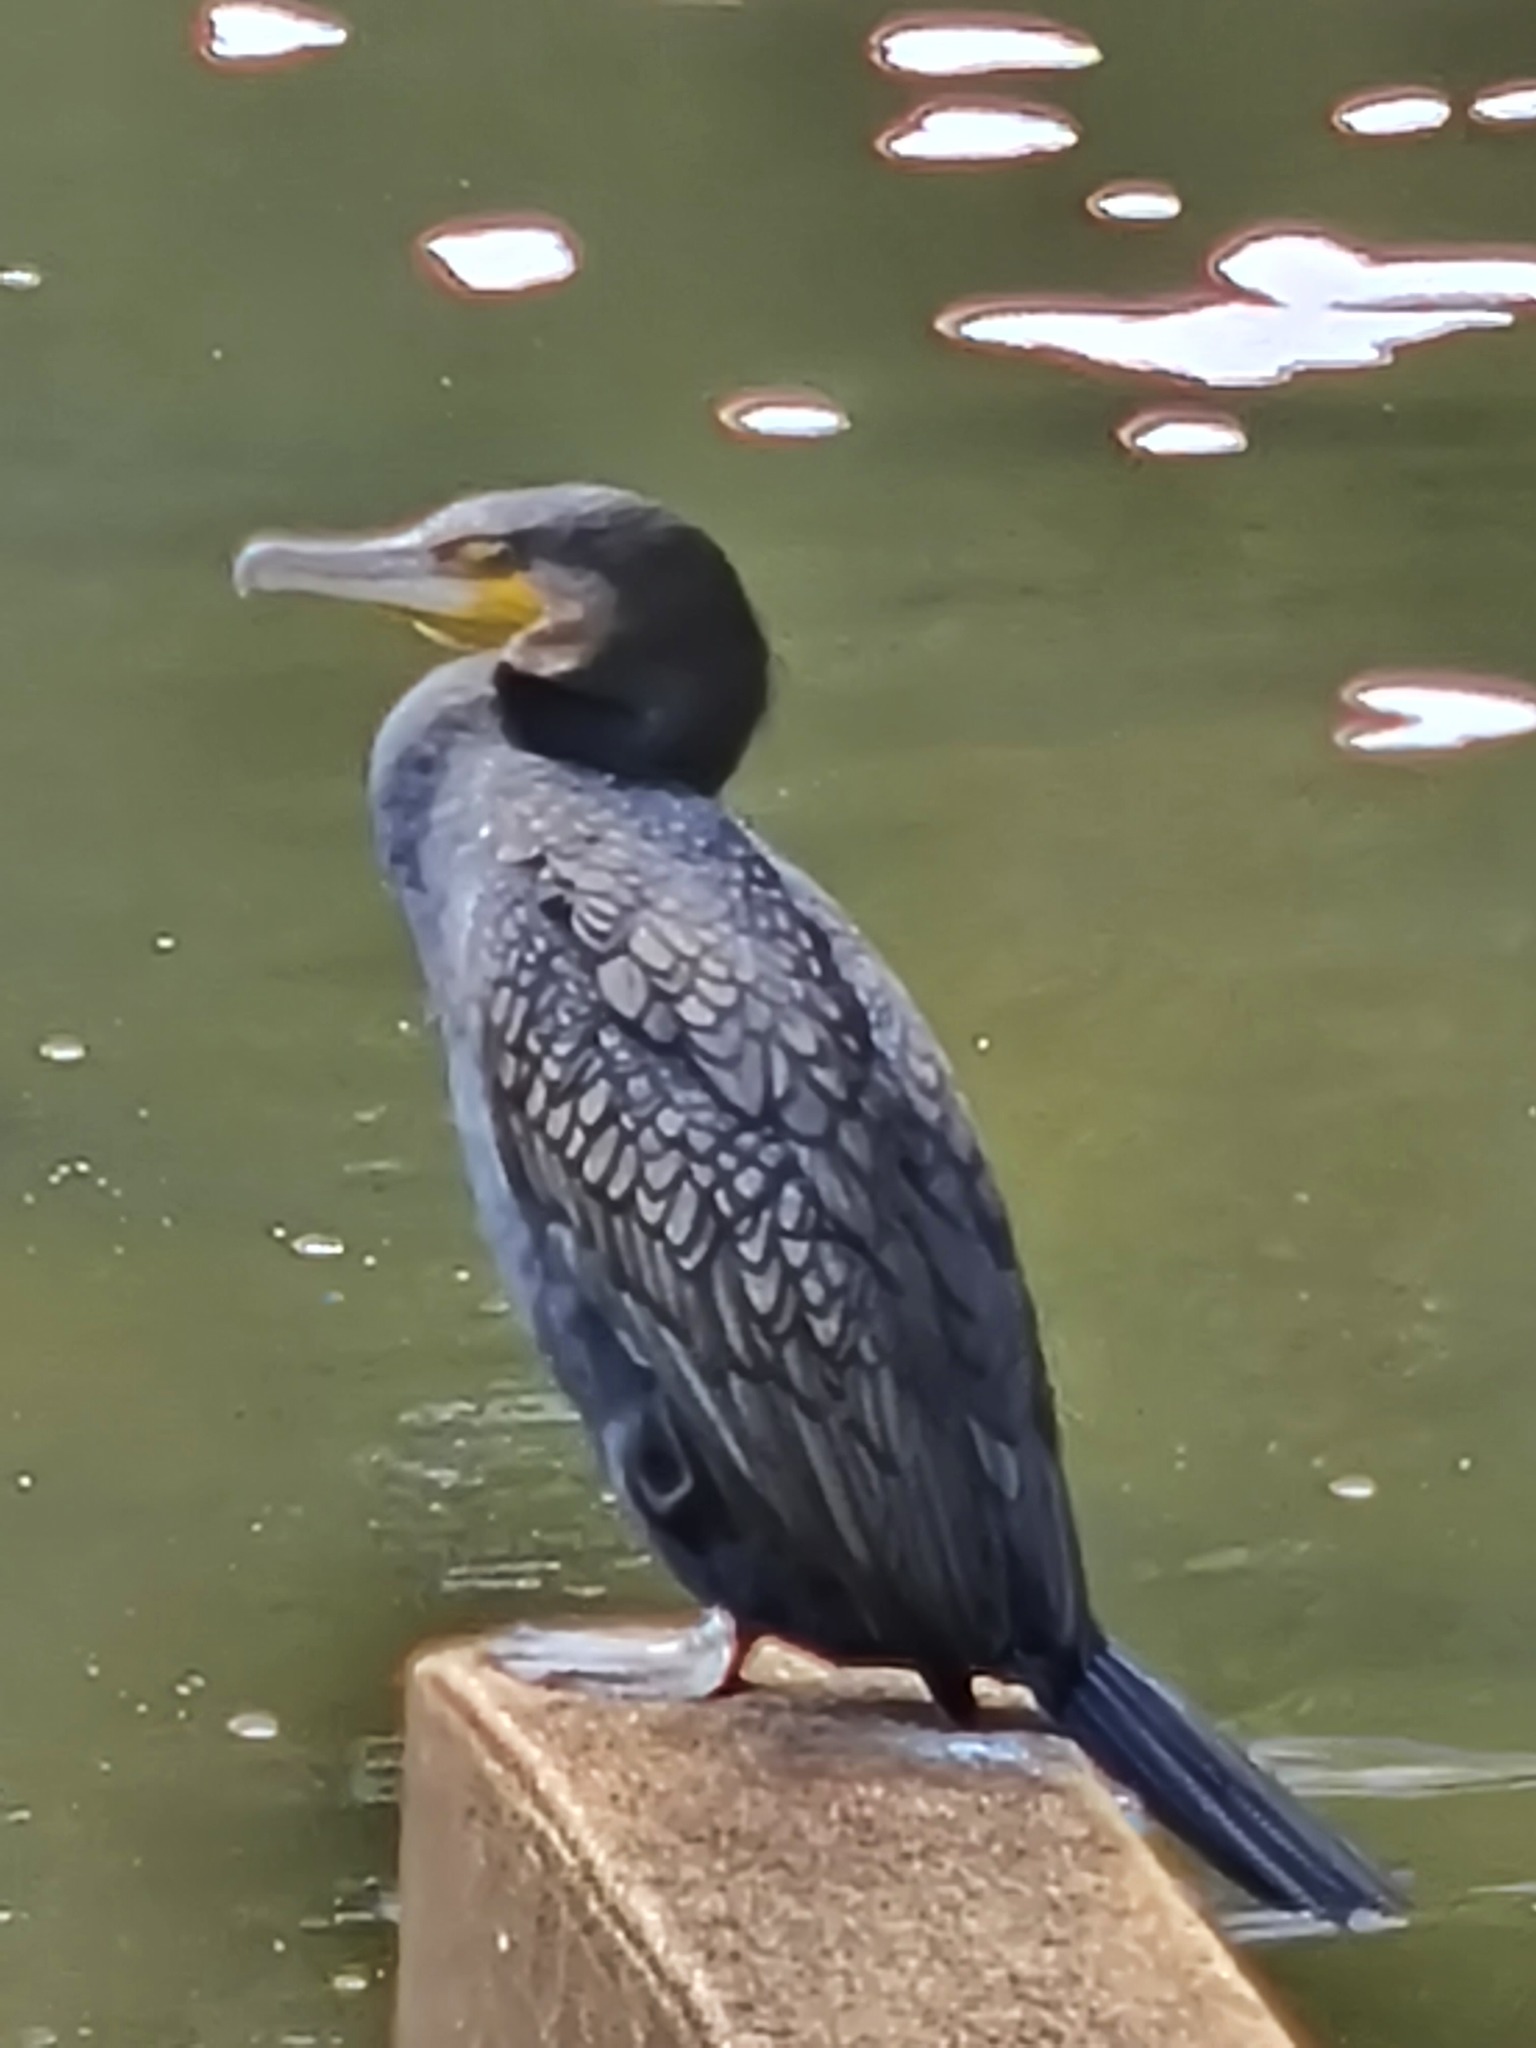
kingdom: Animalia
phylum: Chordata
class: Aves
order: Suliformes
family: Phalacrocoracidae
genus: Phalacrocorax
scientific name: Phalacrocorax carbo
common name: Great cormorant
